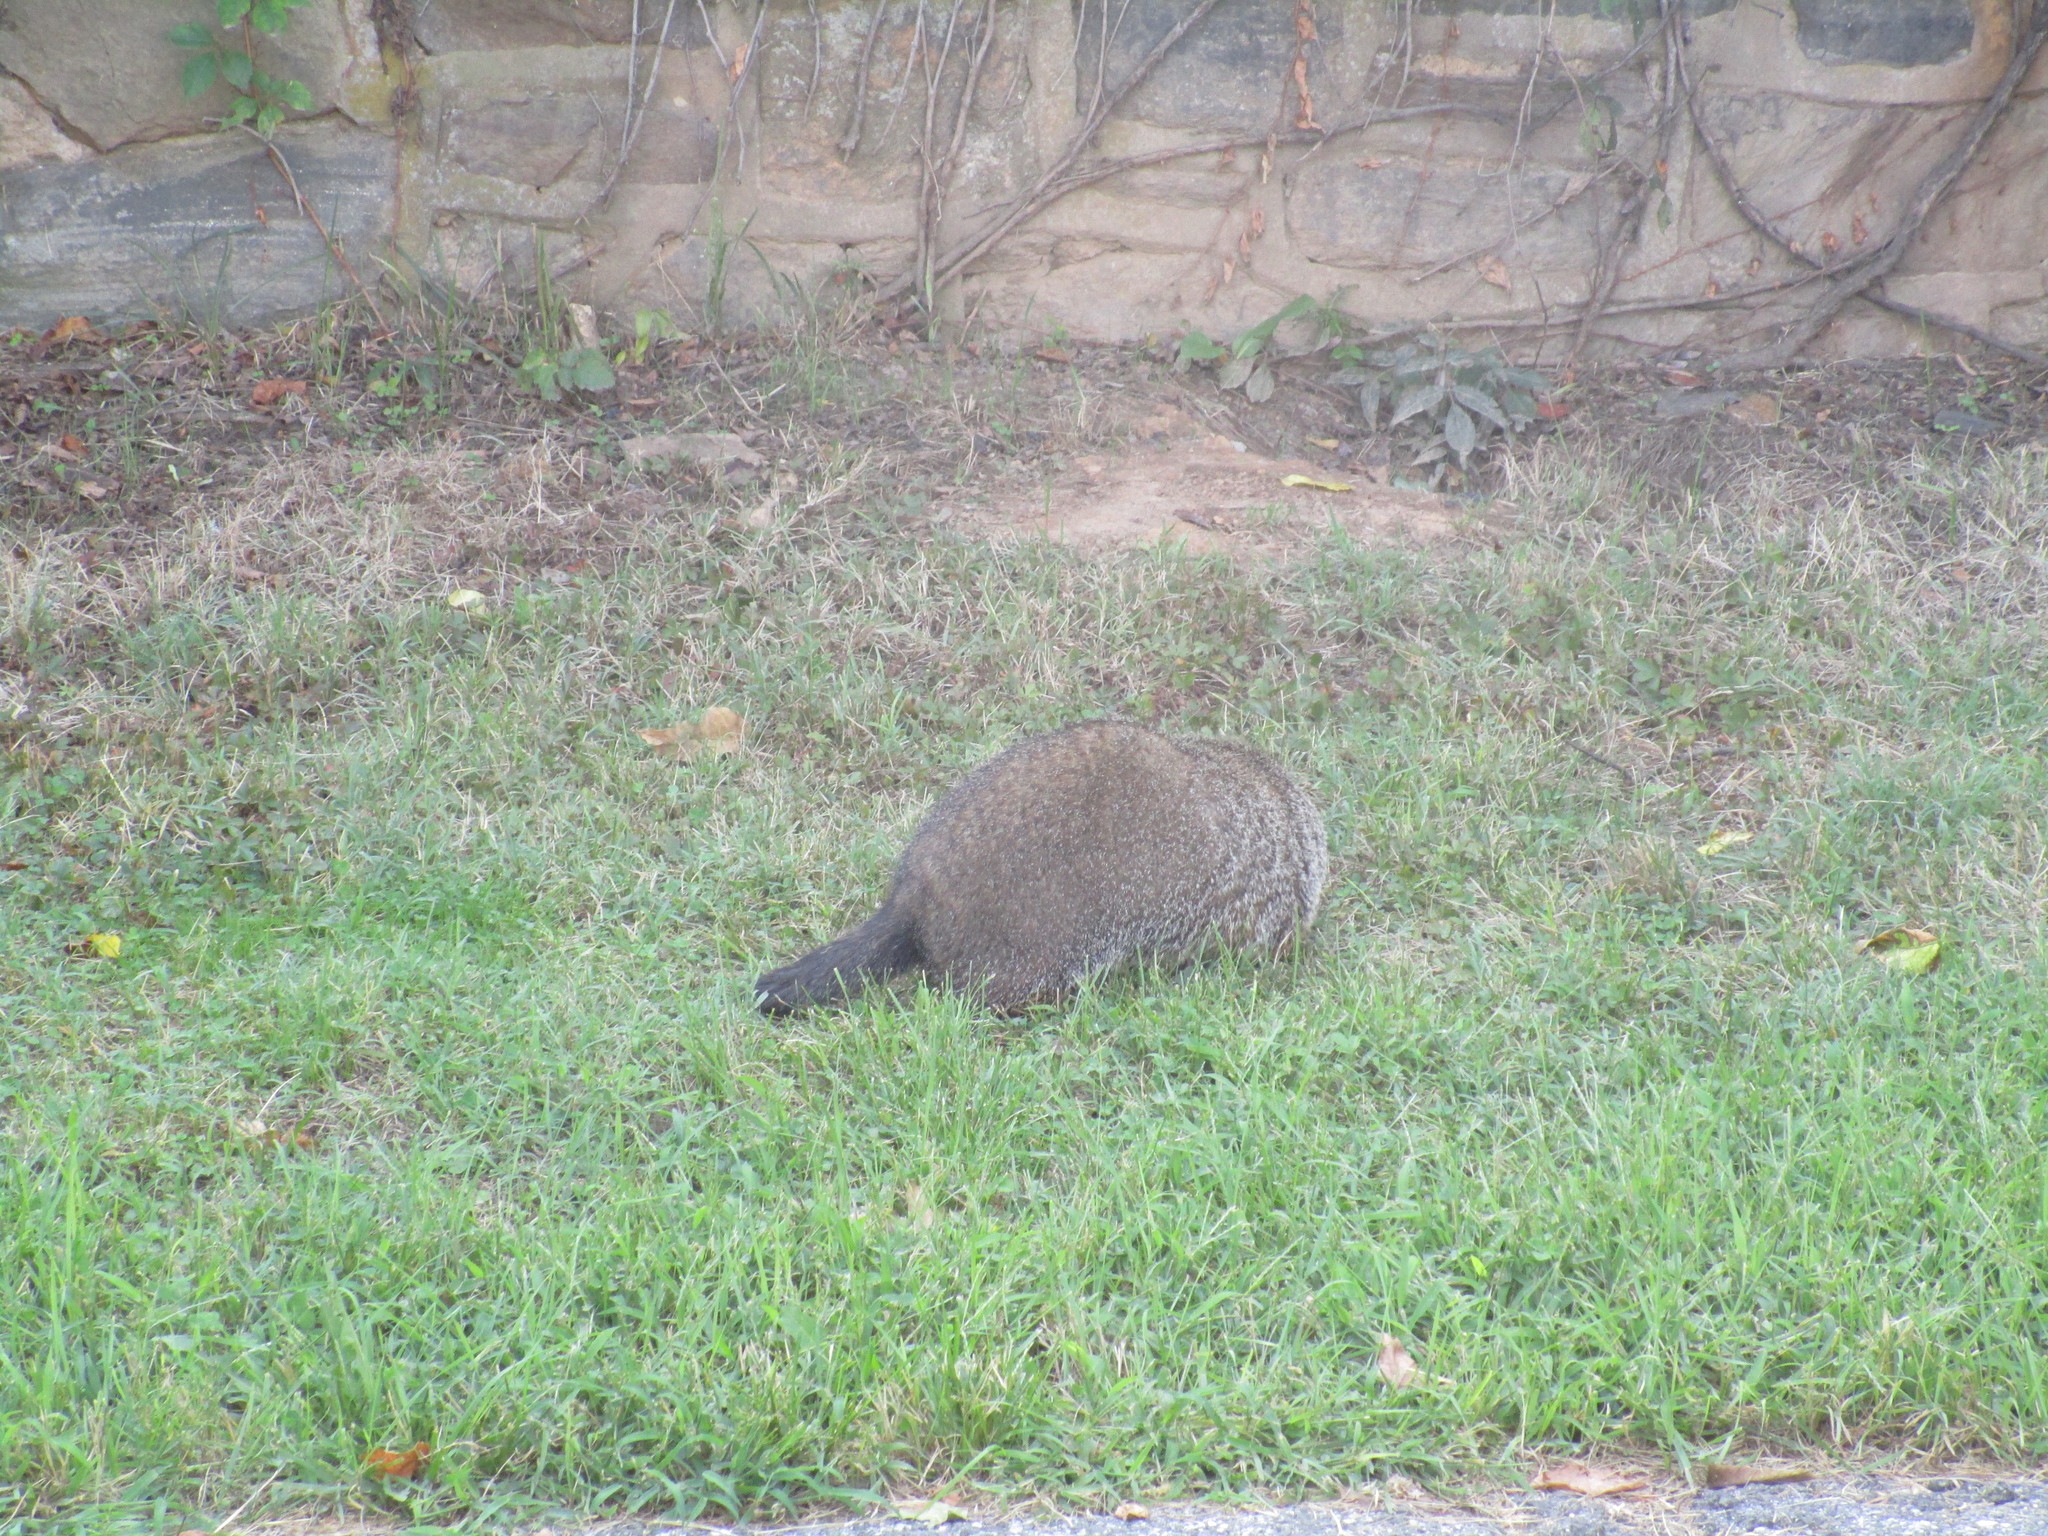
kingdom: Animalia
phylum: Chordata
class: Mammalia
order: Rodentia
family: Sciuridae
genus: Marmota
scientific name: Marmota monax
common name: Groundhog
